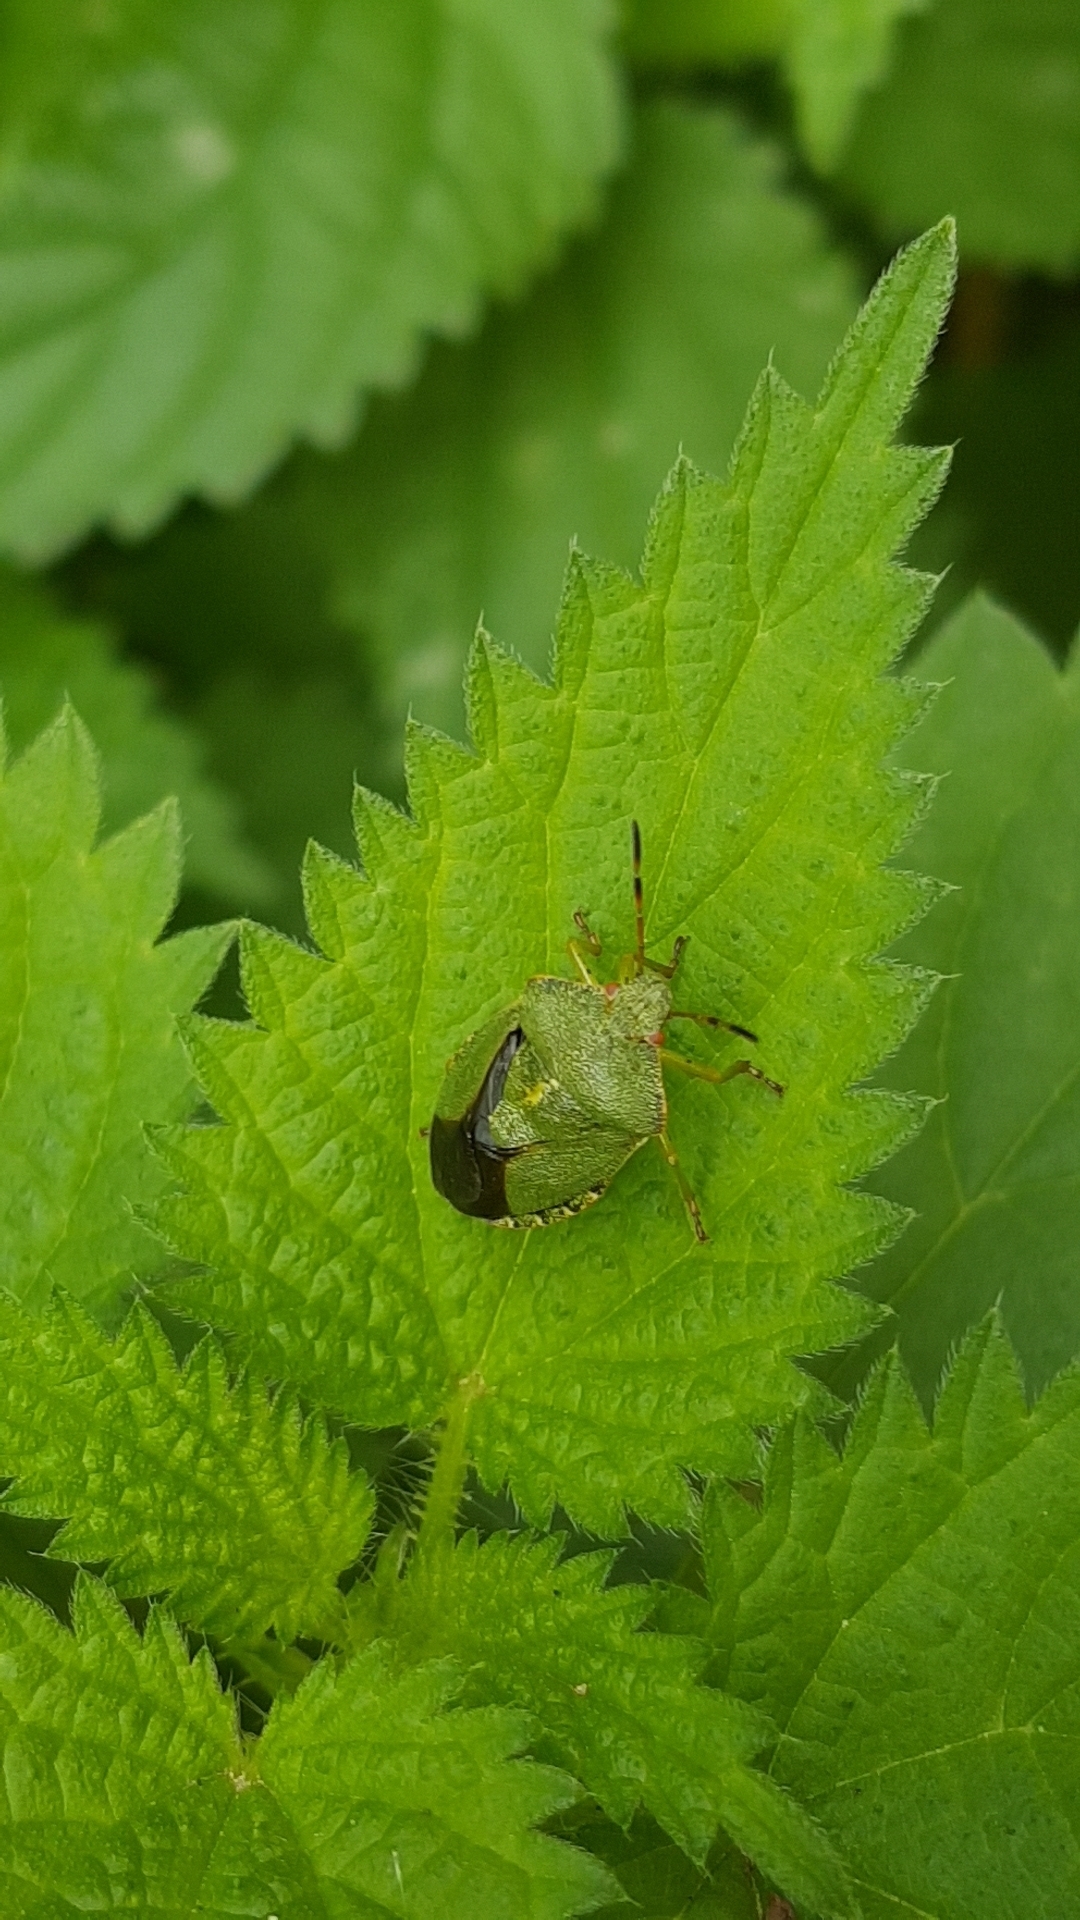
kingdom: Animalia
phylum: Arthropoda
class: Insecta
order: Hemiptera
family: Pentatomidae
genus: Palomena
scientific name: Palomena prasina
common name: Green shieldbug
